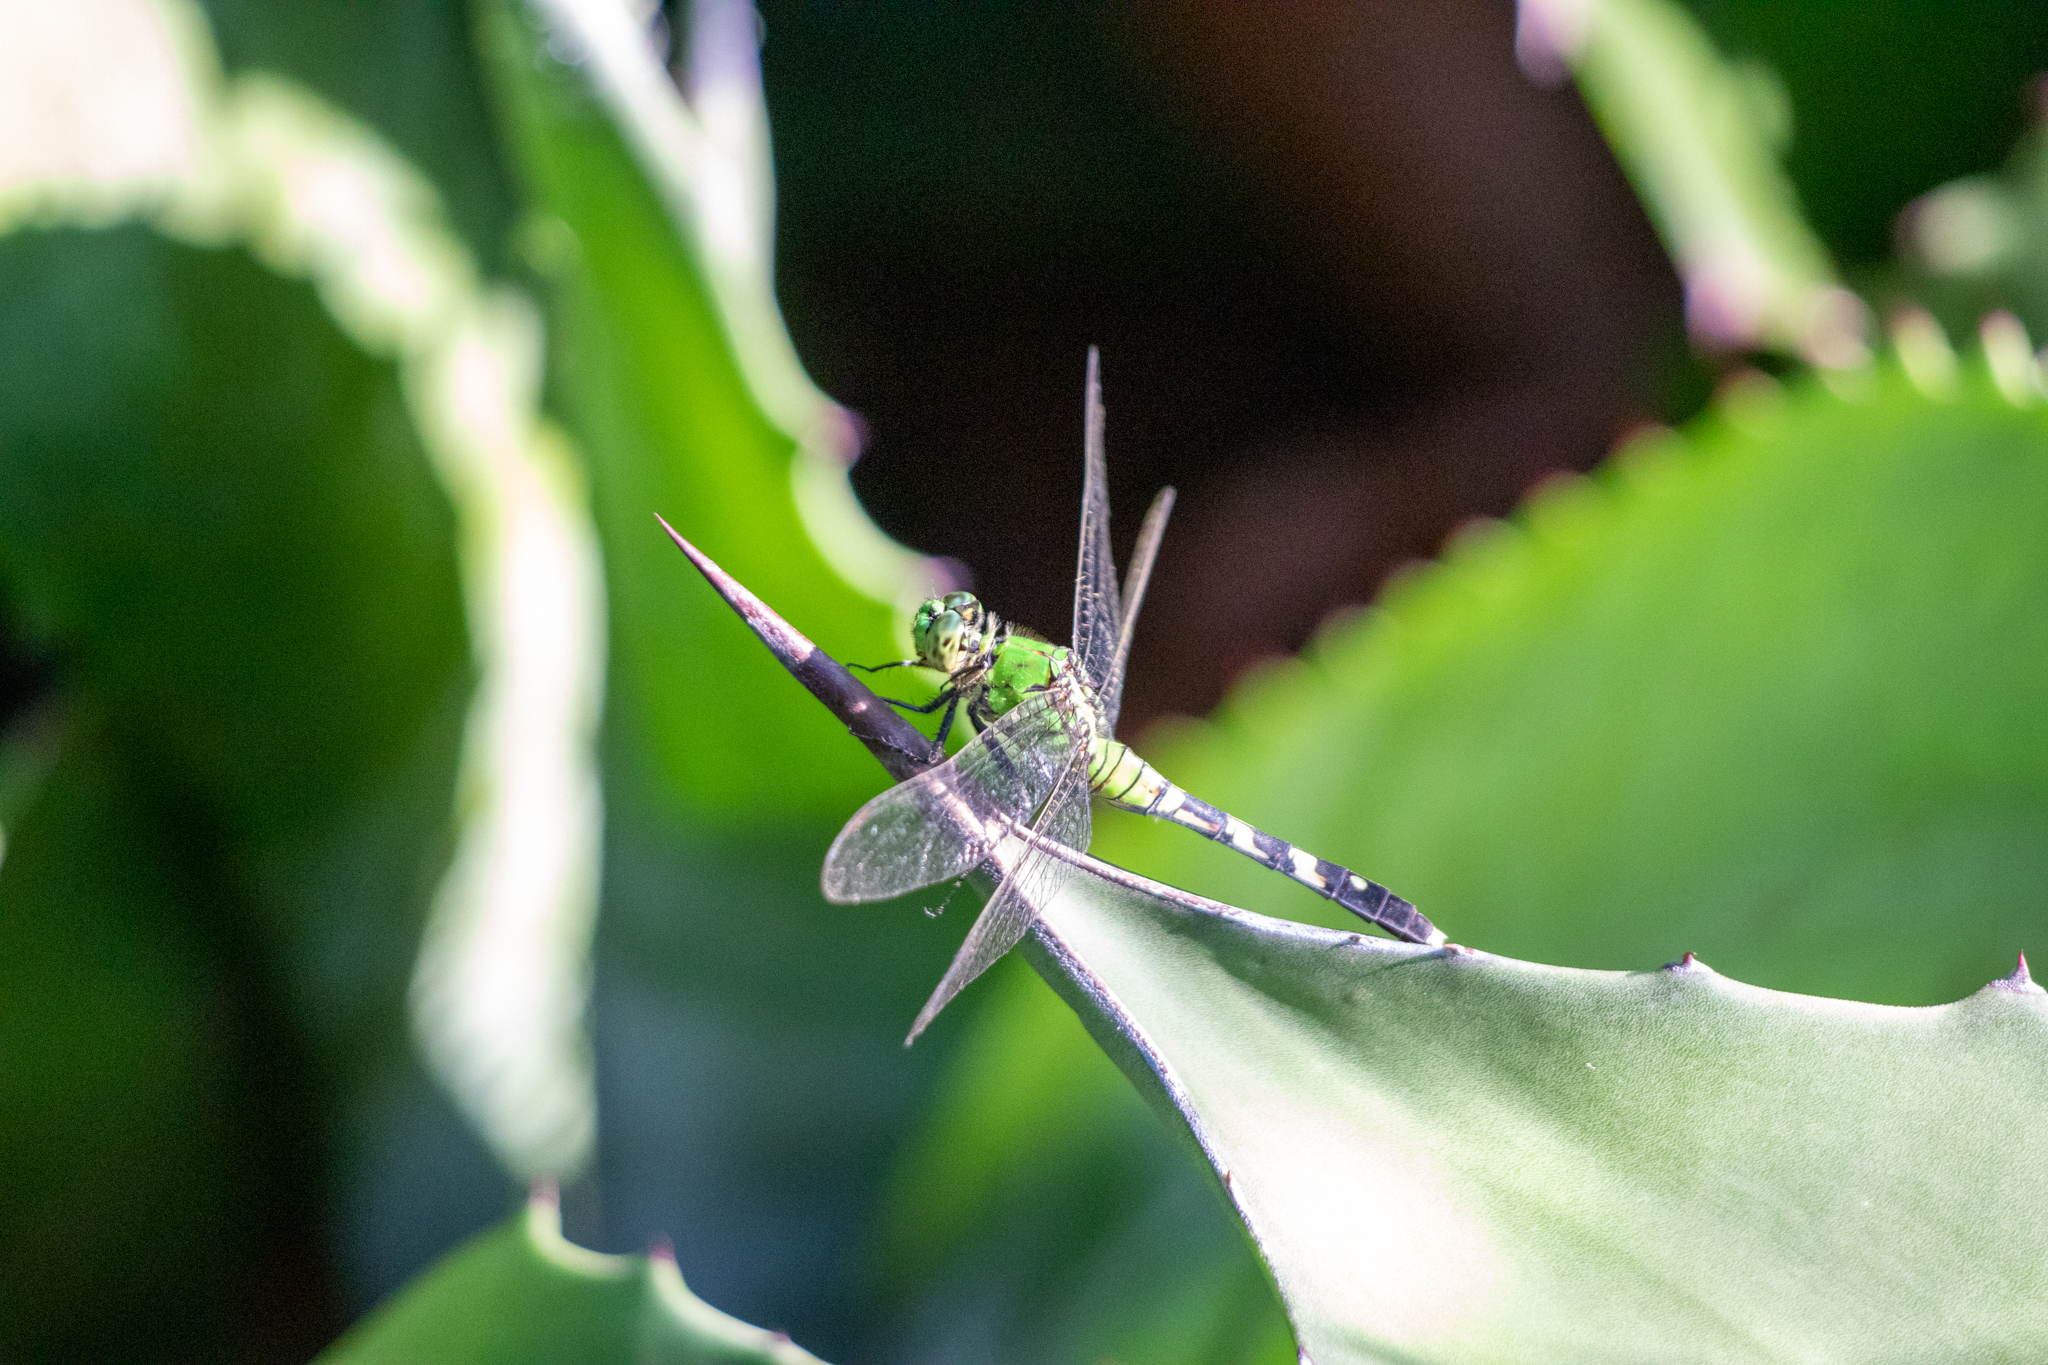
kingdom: Animalia
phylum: Arthropoda
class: Insecta
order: Odonata
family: Libellulidae
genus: Erythemis
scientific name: Erythemis simplicicollis
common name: Eastern pondhawk
